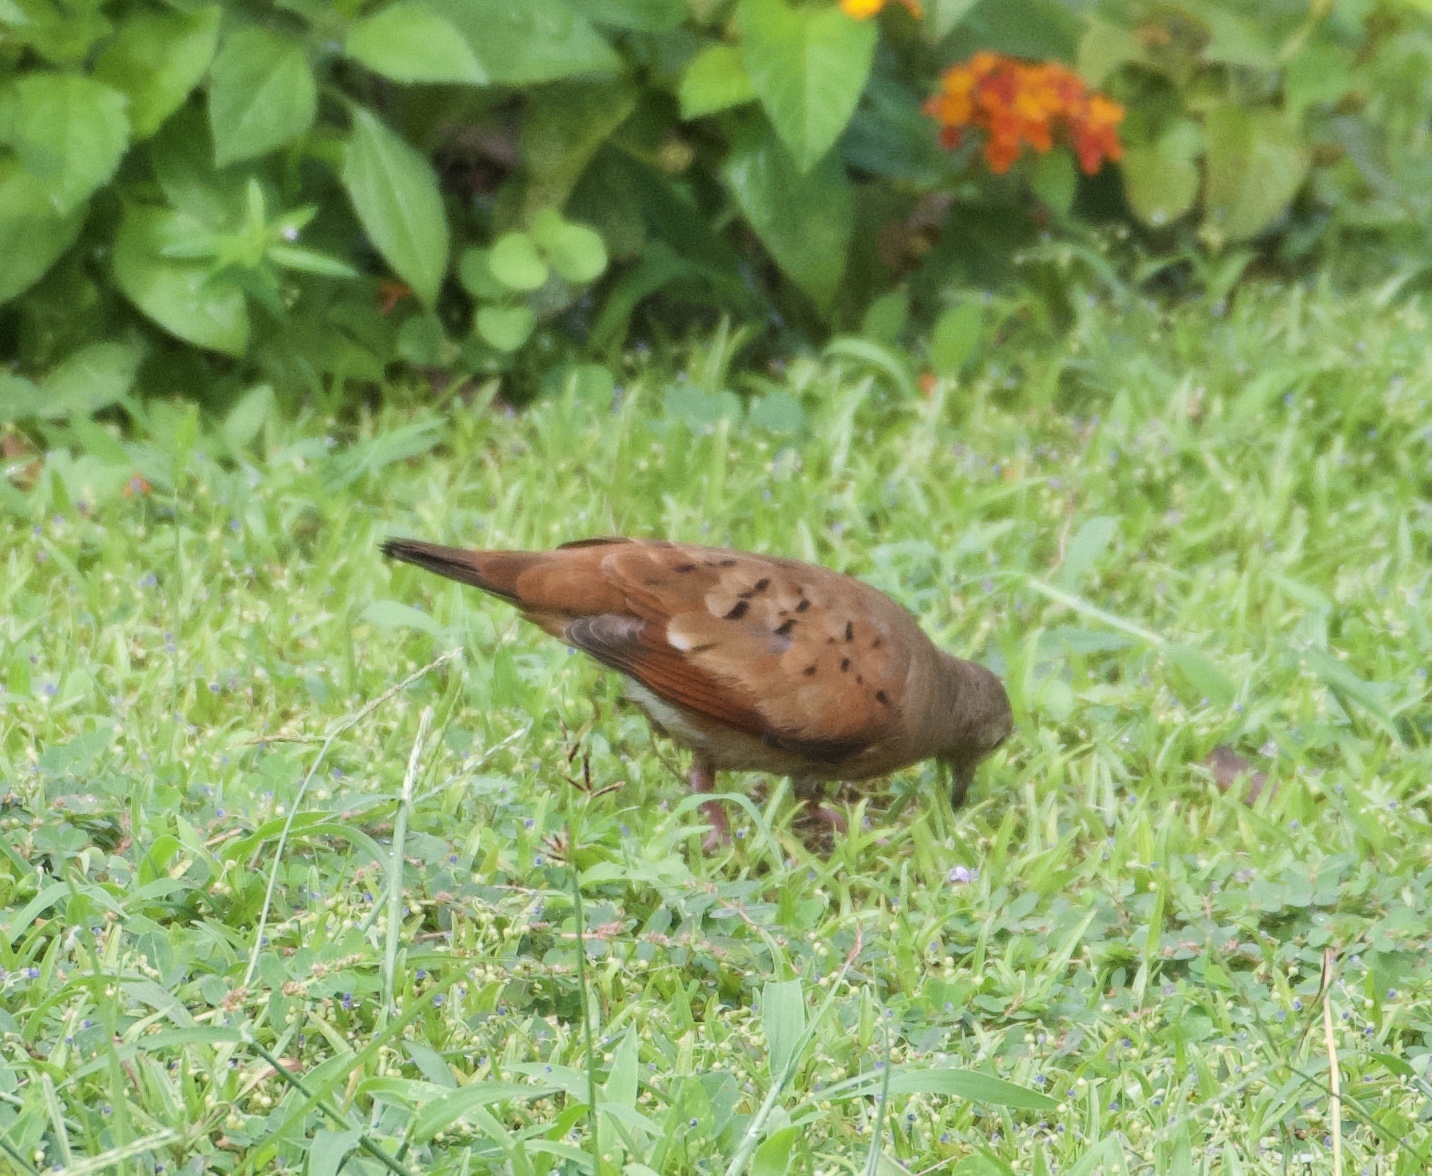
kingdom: Animalia
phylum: Chordata
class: Aves
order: Columbiformes
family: Columbidae
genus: Columbina
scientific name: Columbina talpacoti
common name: Ruddy ground dove
